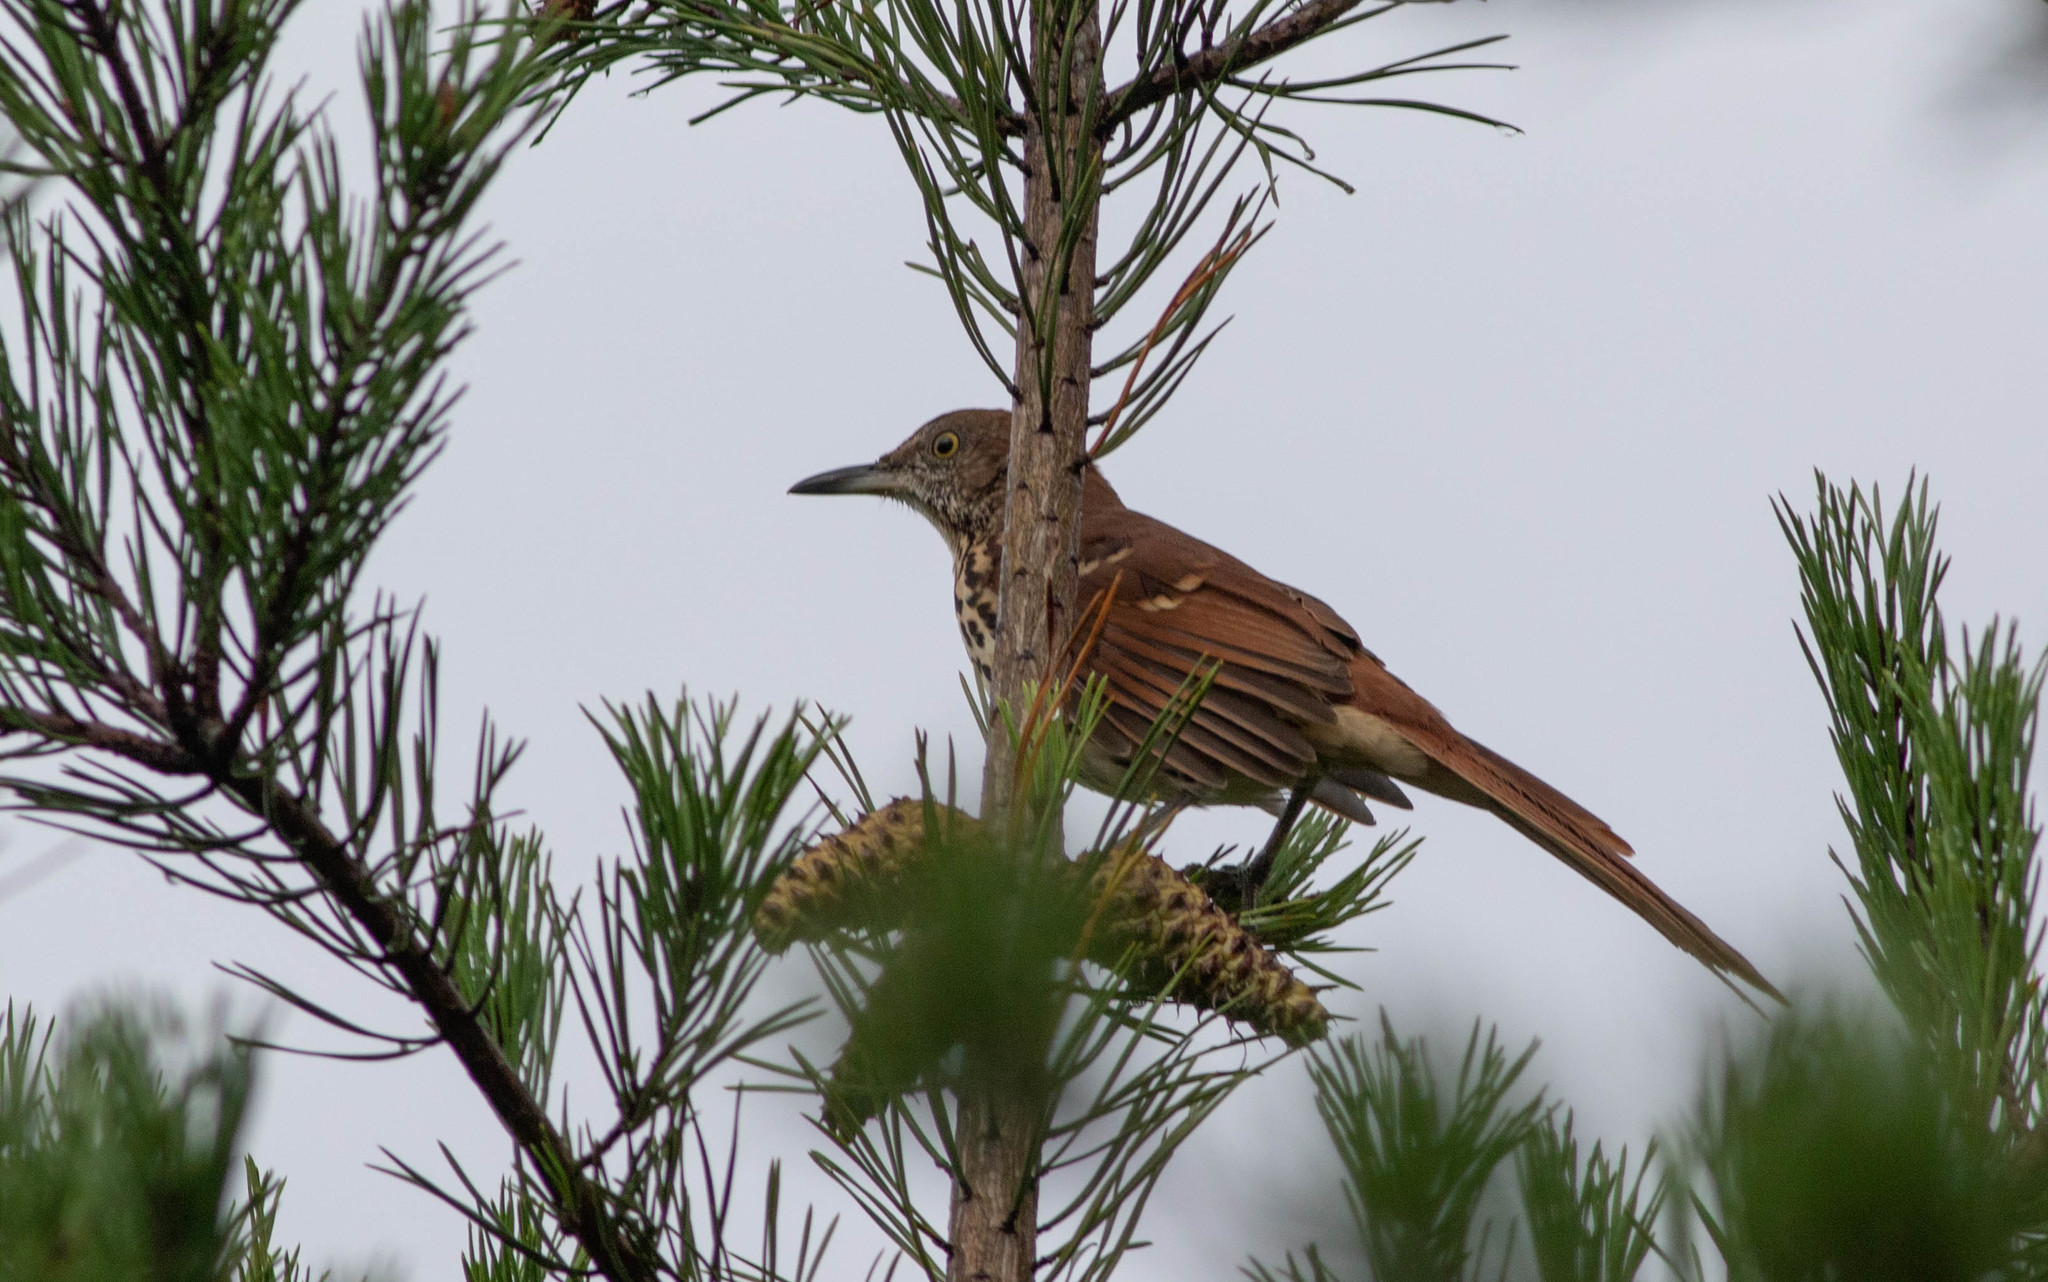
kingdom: Animalia
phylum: Chordata
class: Aves
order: Passeriformes
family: Mimidae
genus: Toxostoma
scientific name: Toxostoma rufum
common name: Brown thrasher
